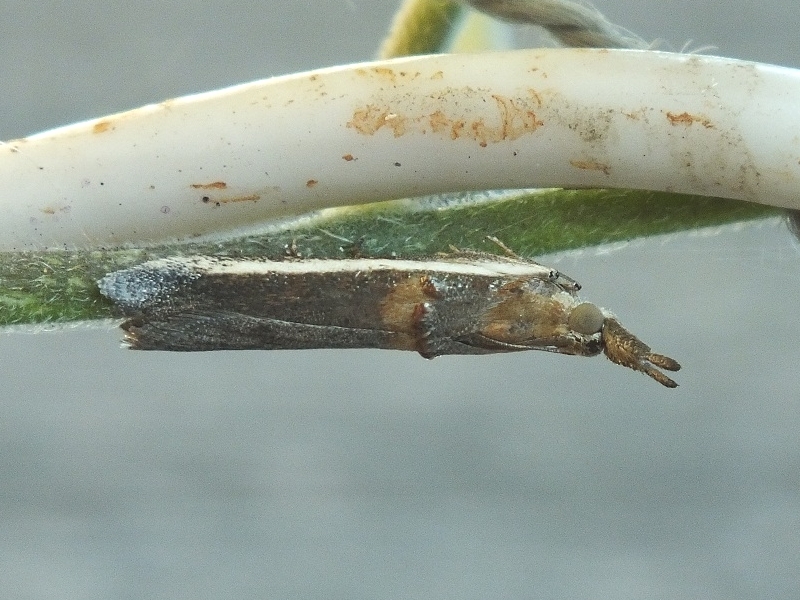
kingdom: Animalia
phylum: Arthropoda
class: Insecta
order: Lepidoptera
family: Pyralidae
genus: Etiella
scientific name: Etiella zinckenella
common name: Gold-banded etiella moth
